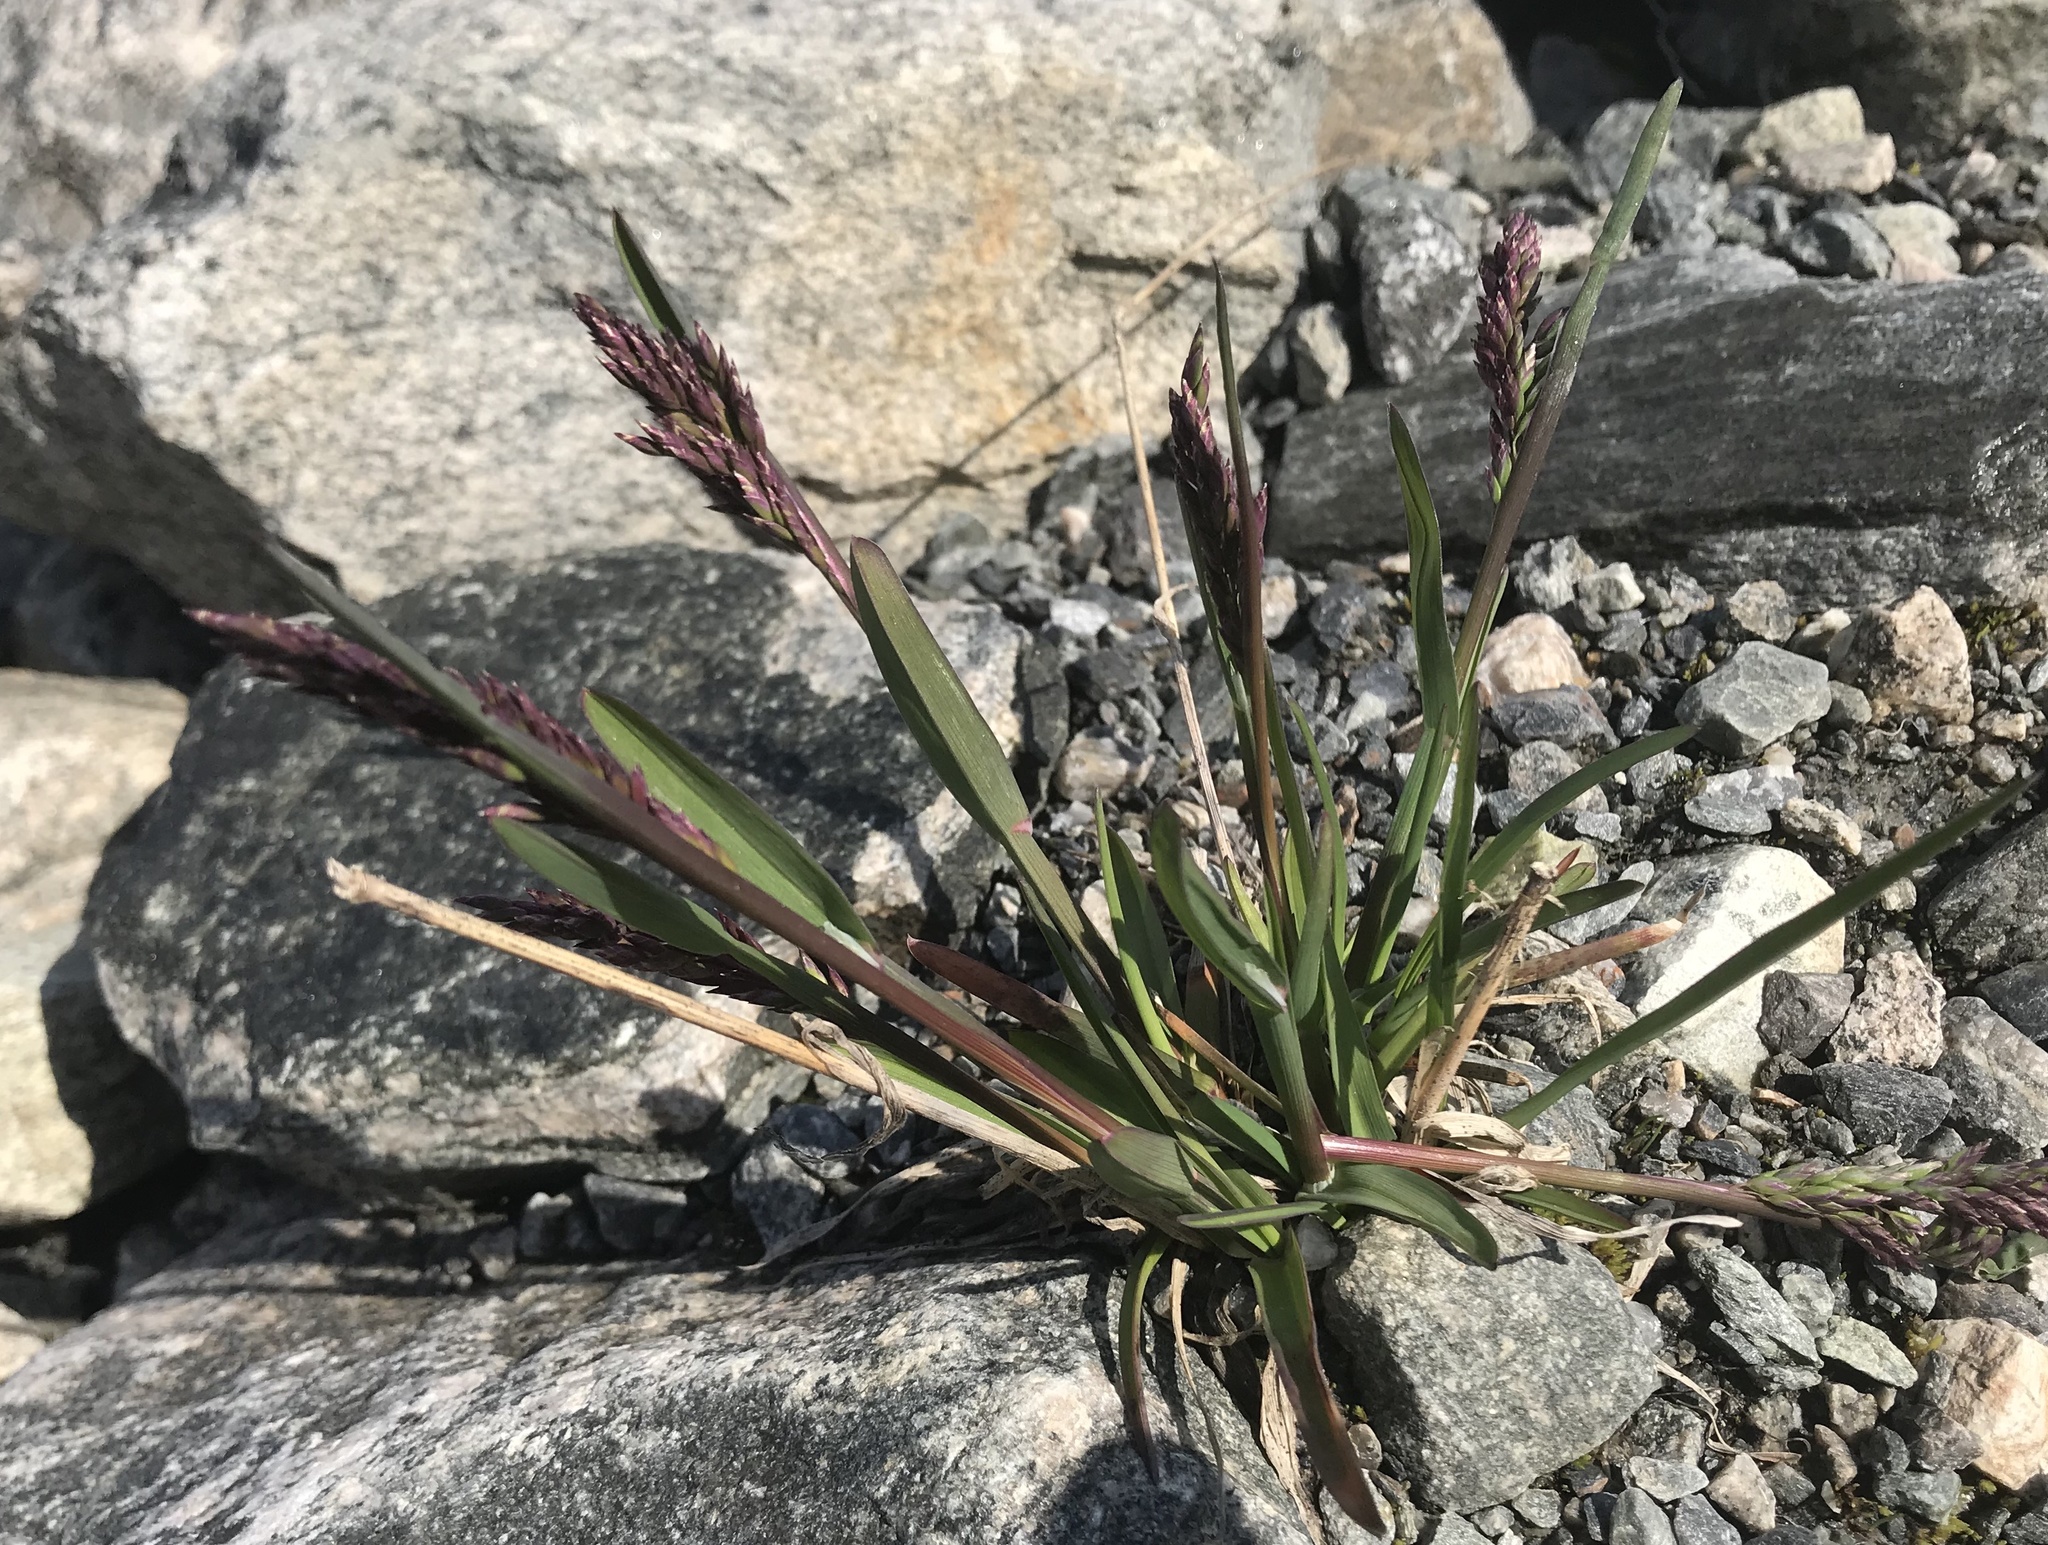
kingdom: Plantae
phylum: Tracheophyta
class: Liliopsida
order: Poales
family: Poaceae
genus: Poa
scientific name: Poa alpina
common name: Alpine bluegrass
